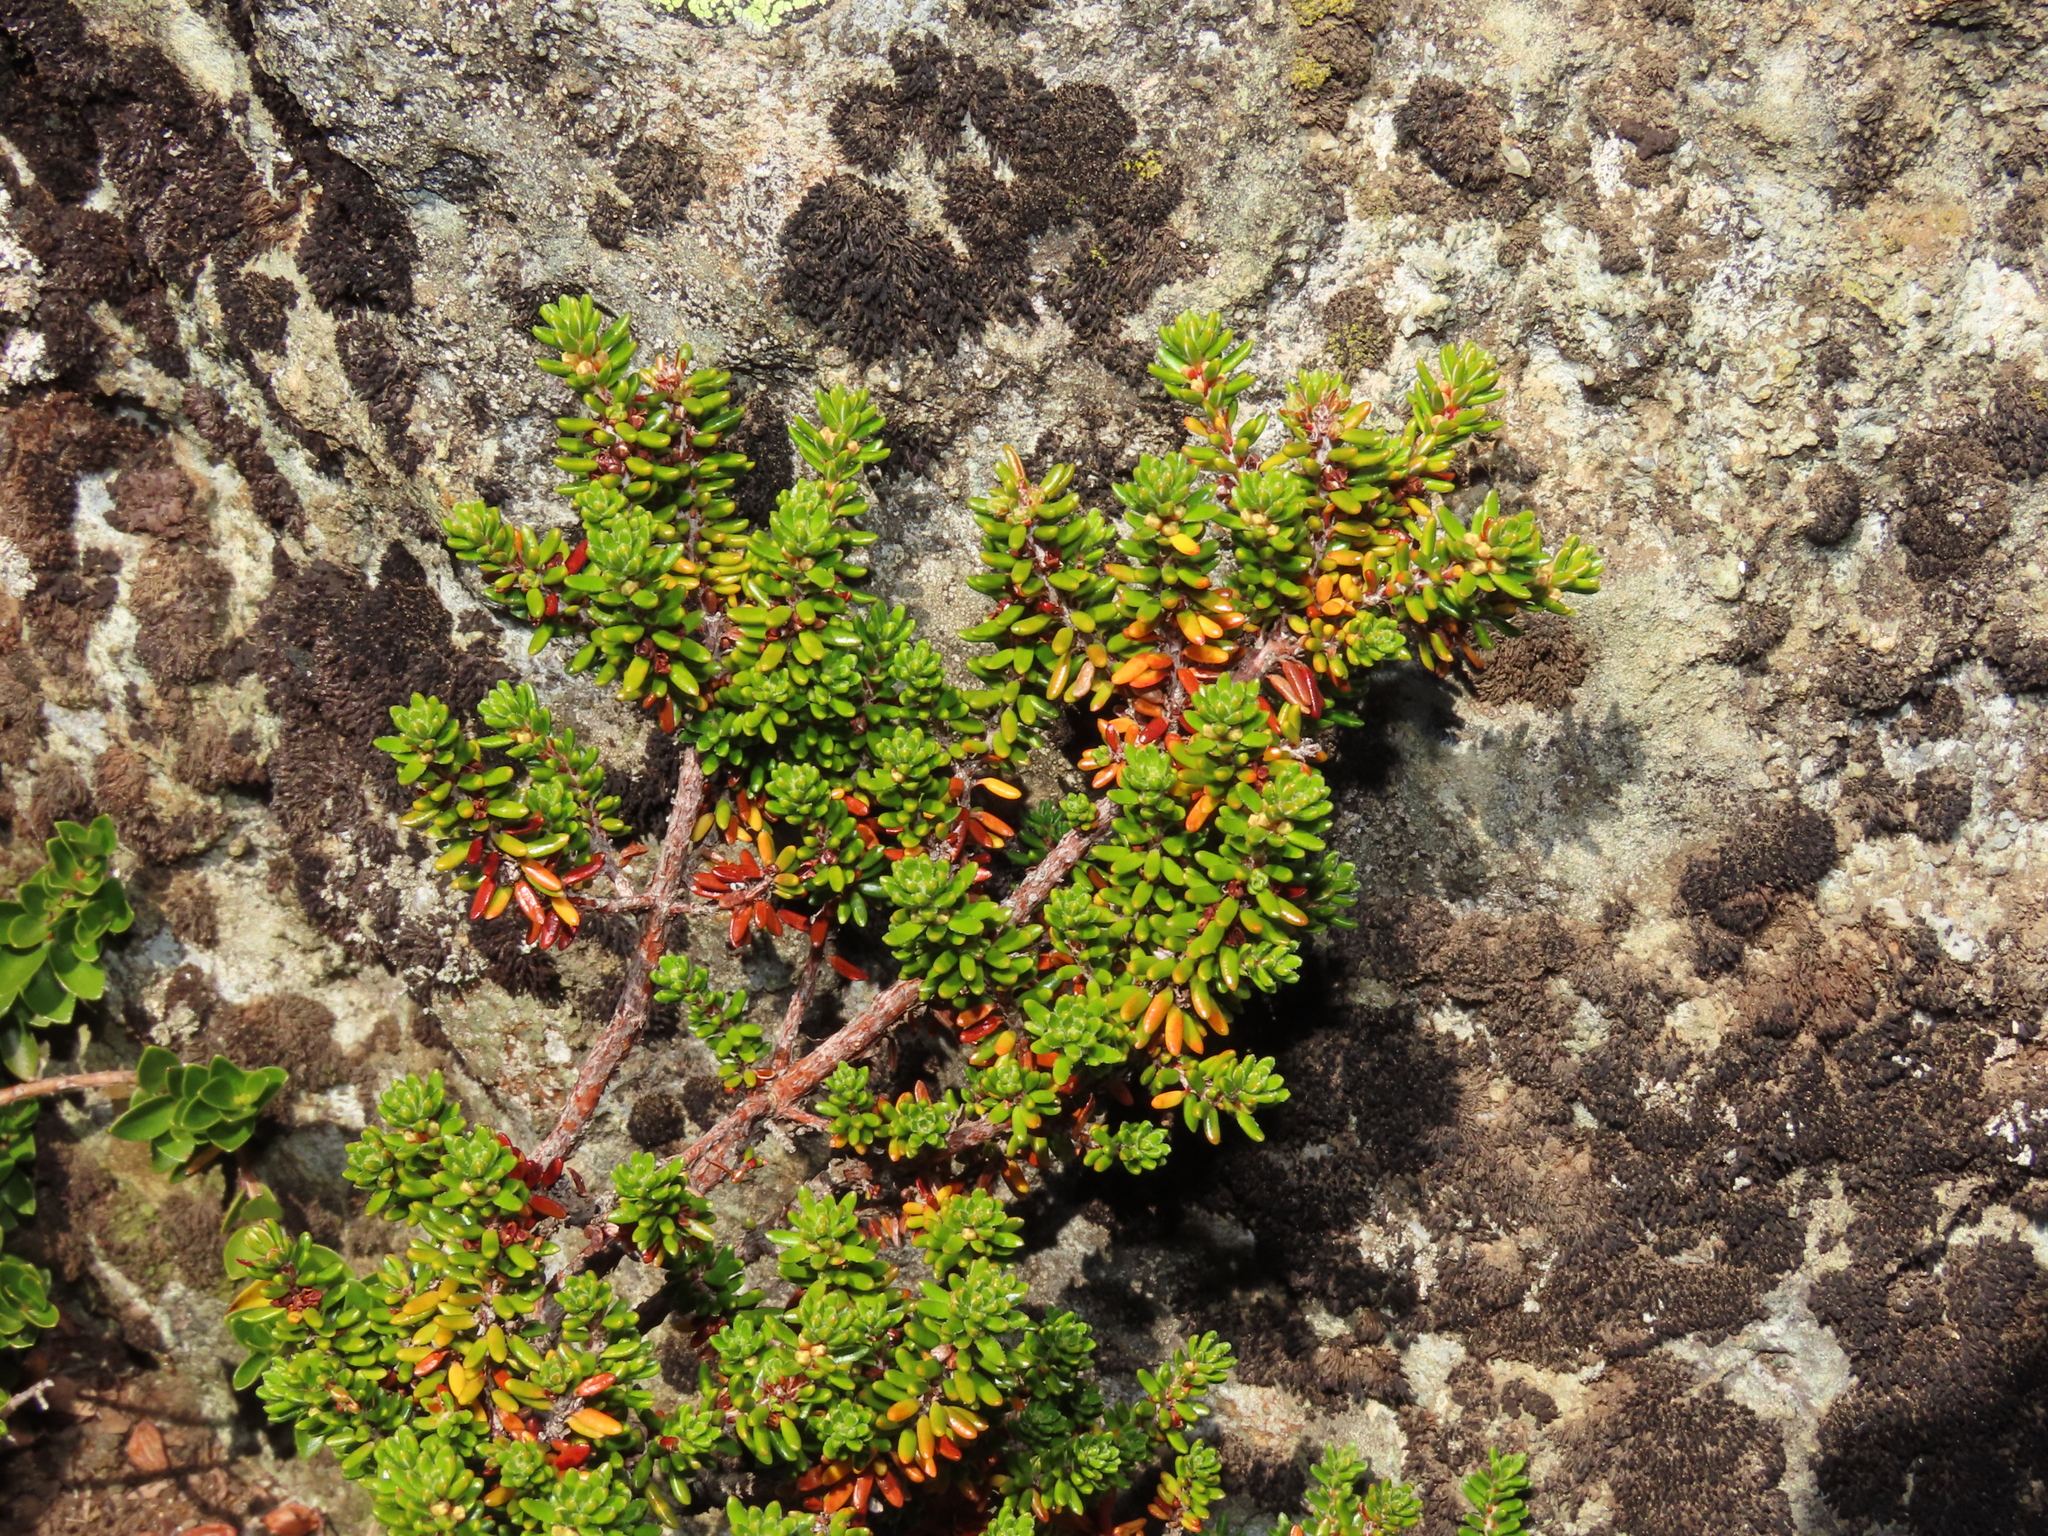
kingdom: Plantae
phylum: Tracheophyta
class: Magnoliopsida
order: Ericales
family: Ericaceae
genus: Empetrum
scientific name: Empetrum rubrum
